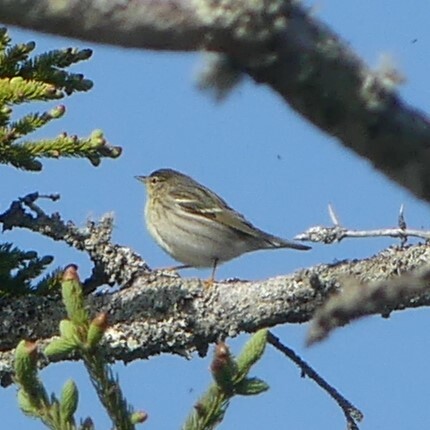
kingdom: Animalia
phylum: Chordata
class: Aves
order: Passeriformes
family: Parulidae
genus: Setophaga
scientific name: Setophaga striata
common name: Blackpoll warbler
